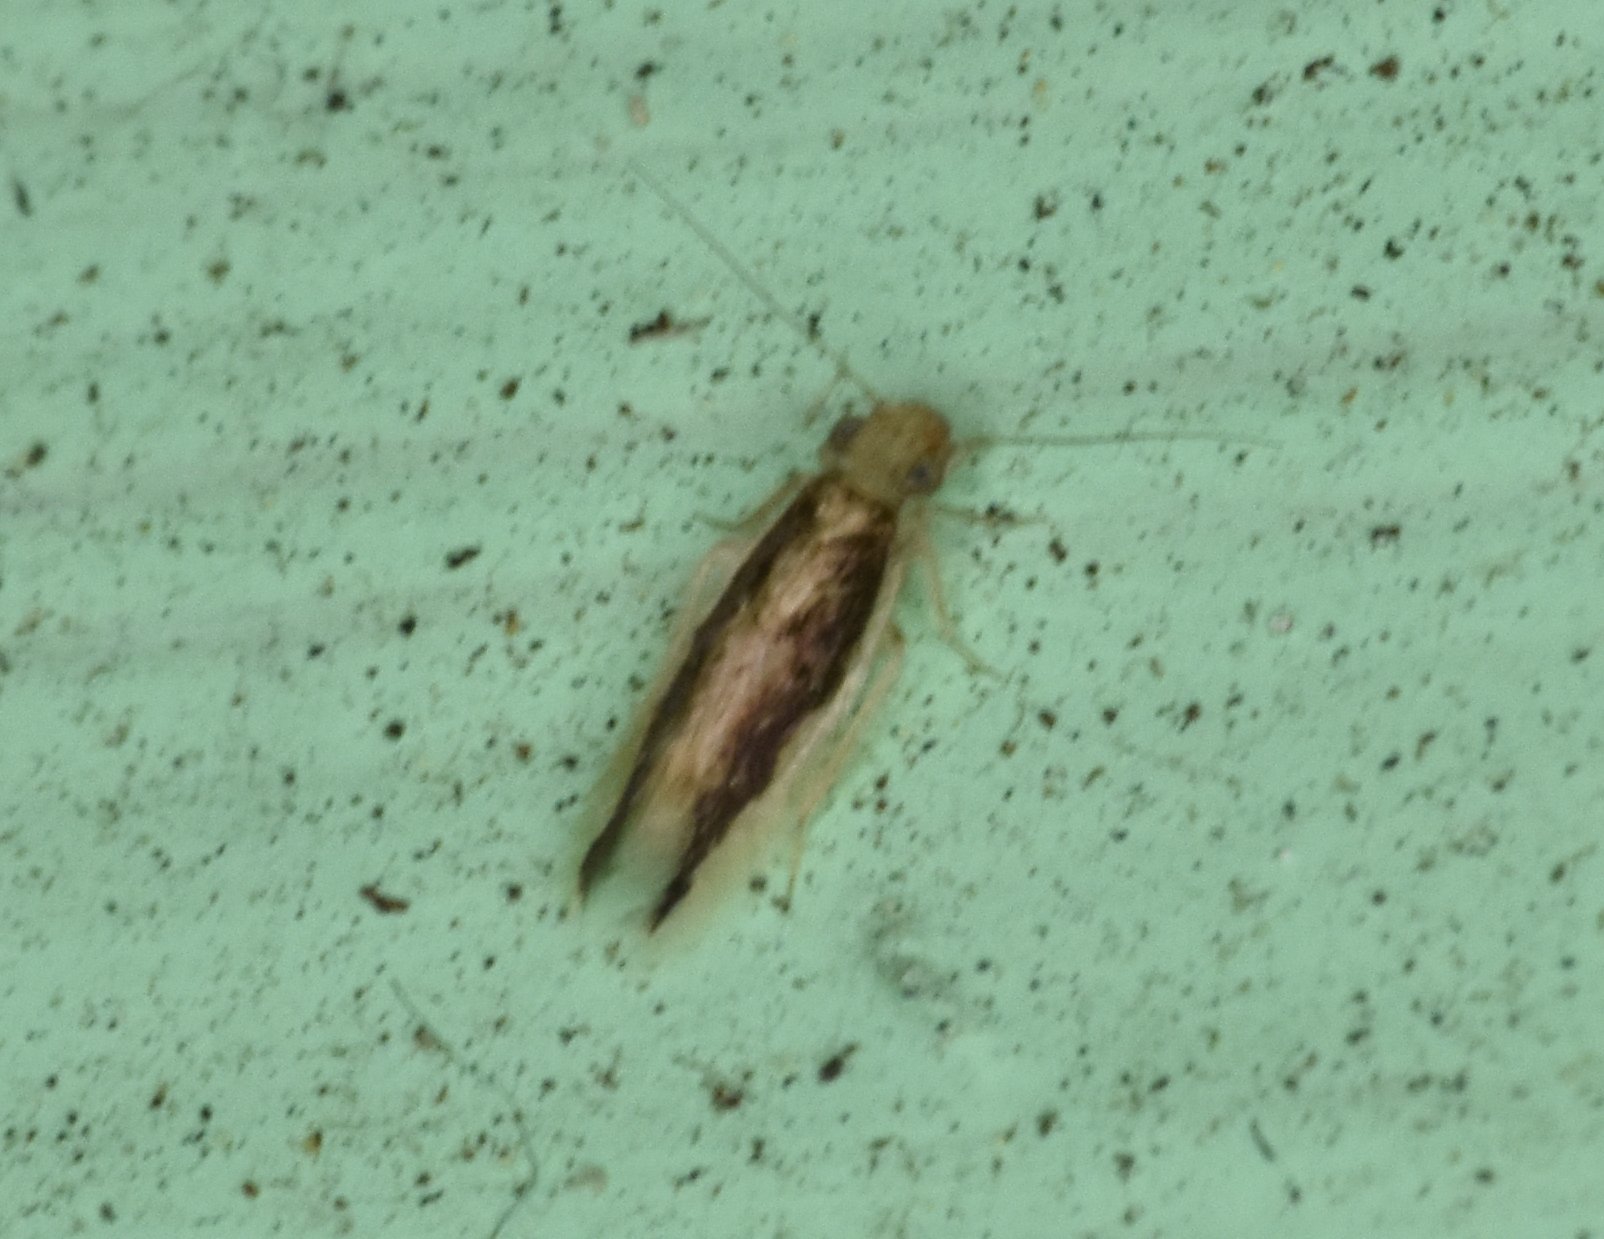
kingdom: Animalia
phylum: Arthropoda
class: Insecta
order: Psocodea
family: Lepidopsocidae
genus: Echmepteryx
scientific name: Echmepteryx madagascariensis
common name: Bark lice
